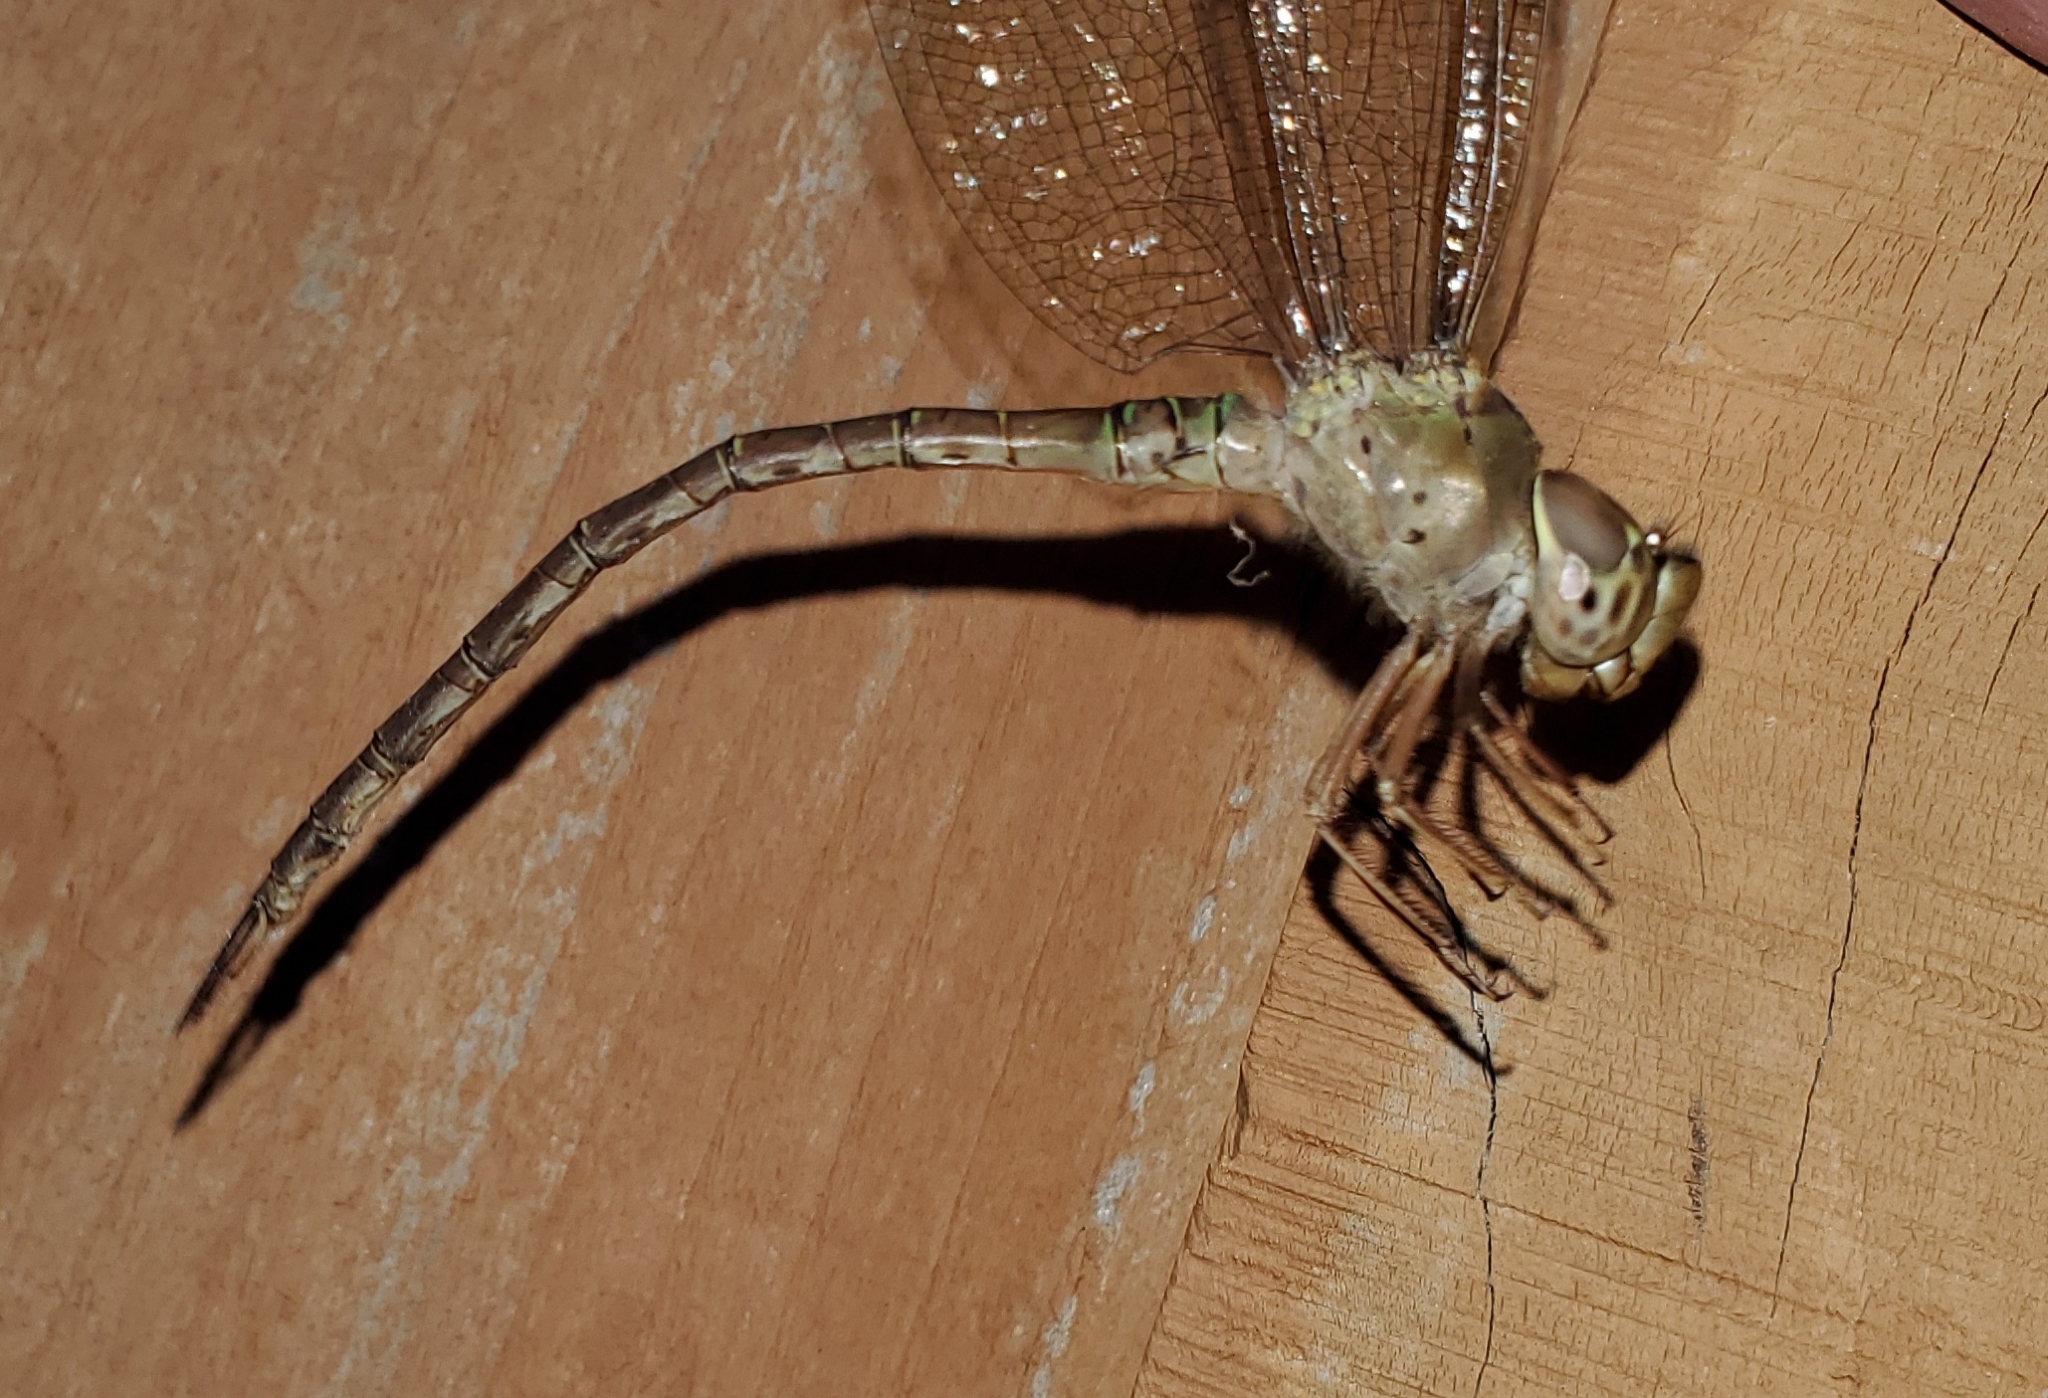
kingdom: Animalia
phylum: Arthropoda
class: Insecta
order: Odonata
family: Aeshnidae
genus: Gynacantha
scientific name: Gynacantha nervosa
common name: Twilight darner
